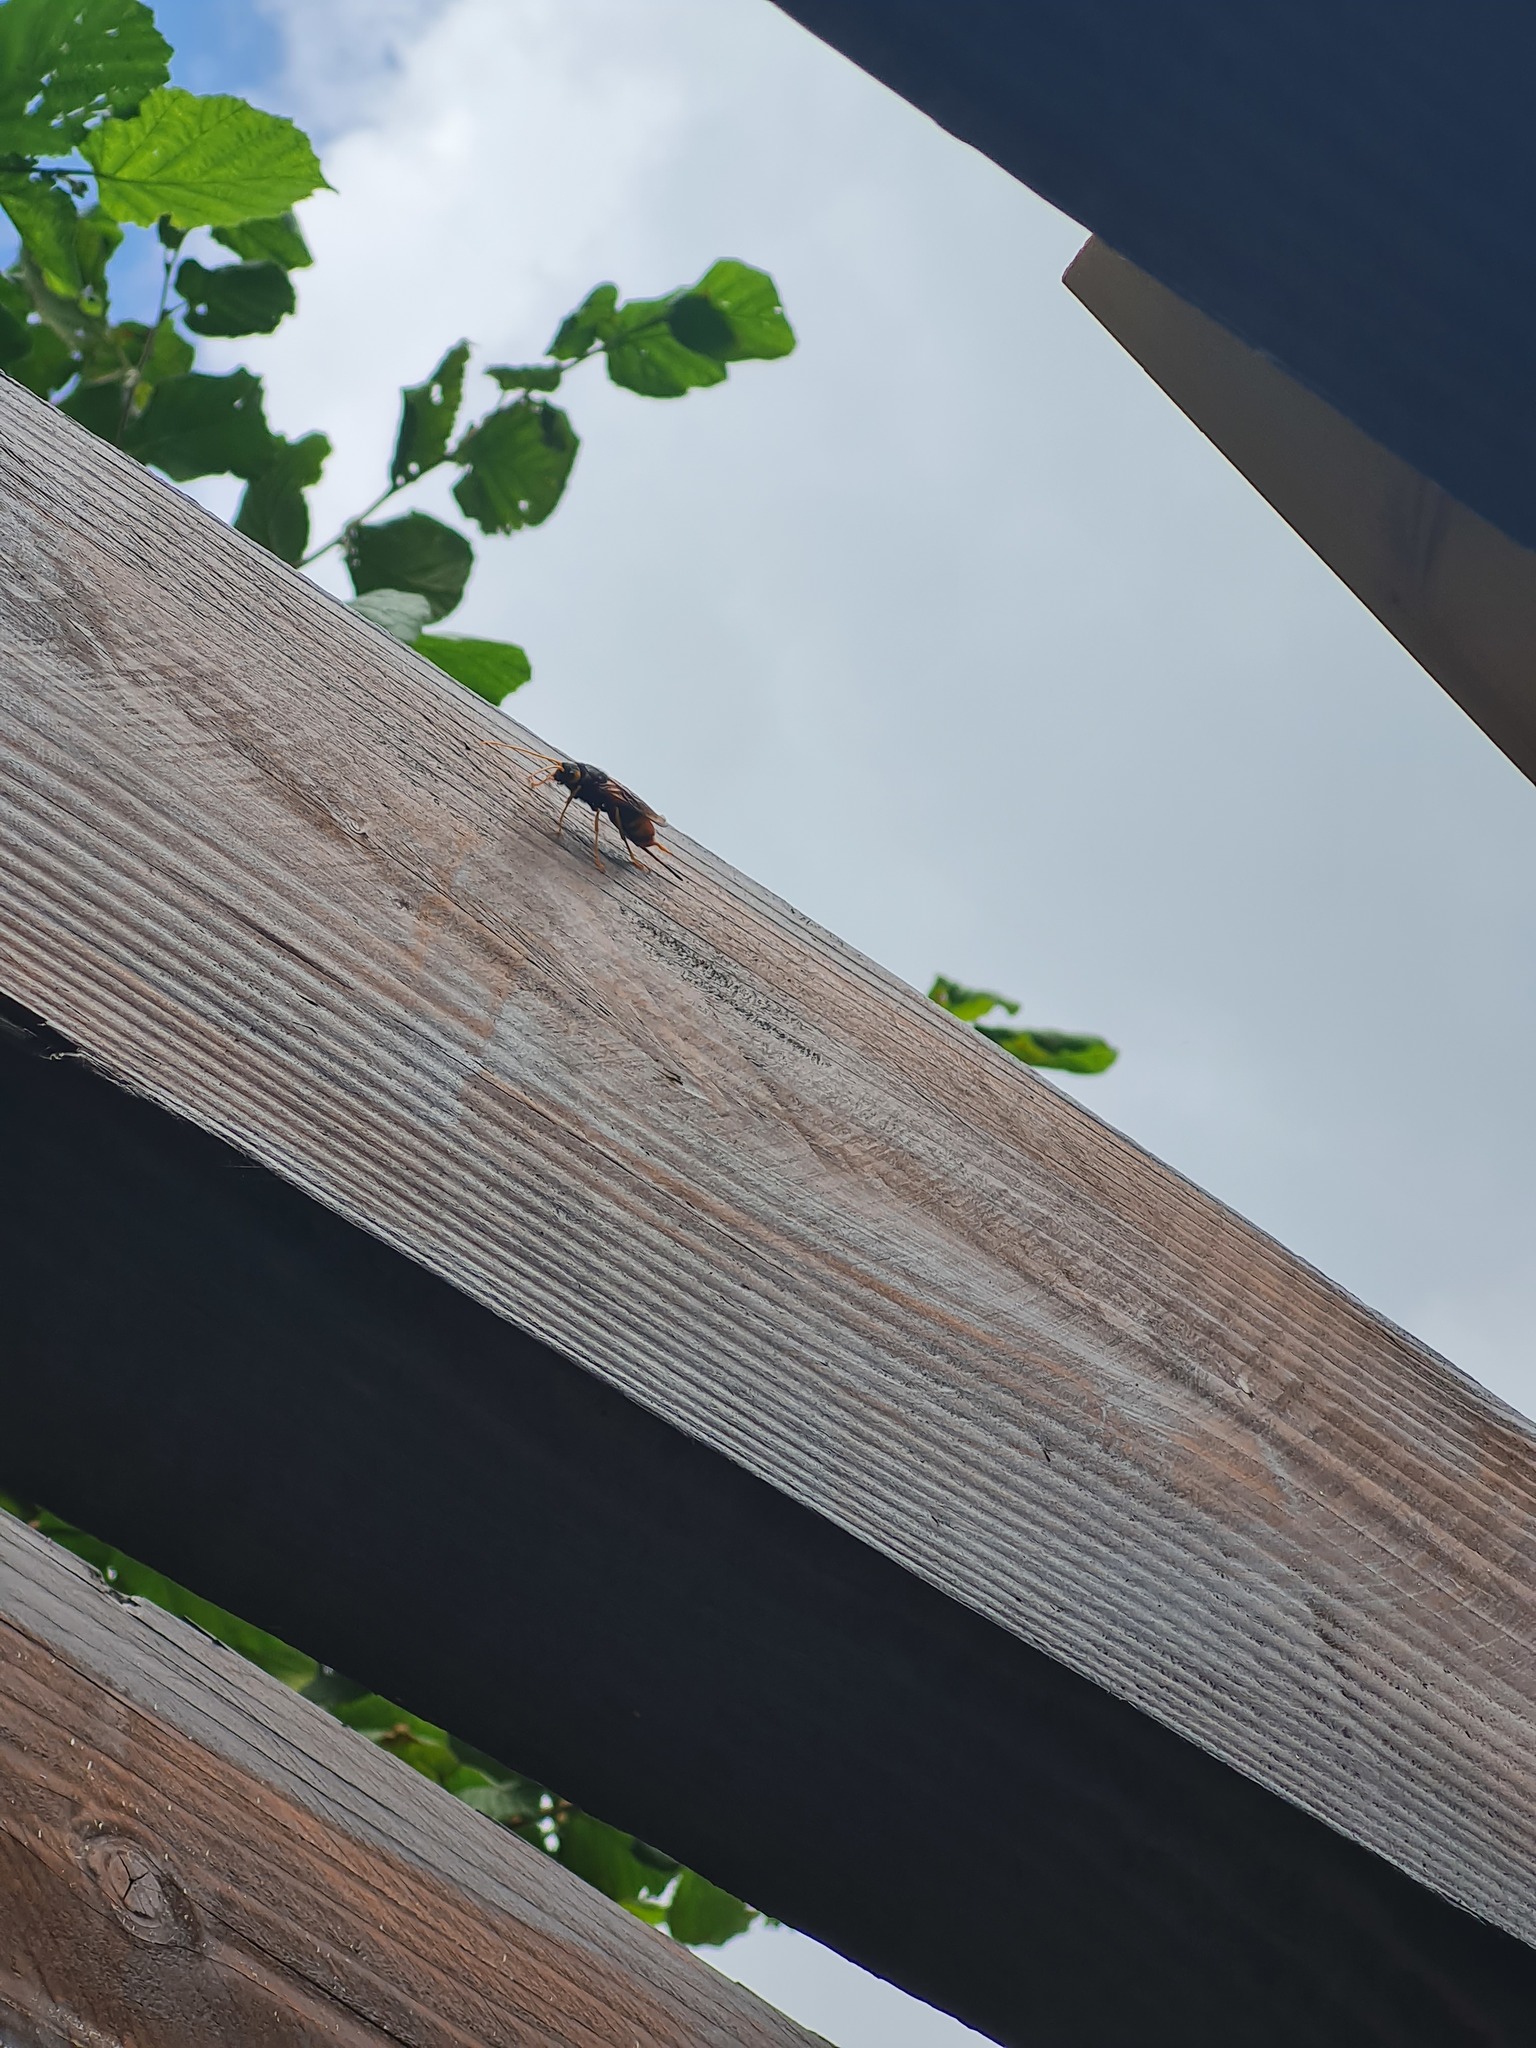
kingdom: Animalia
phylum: Arthropoda
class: Insecta
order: Hymenoptera
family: Siricidae
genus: Urocerus
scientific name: Urocerus gigas
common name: Giant woodwasp
